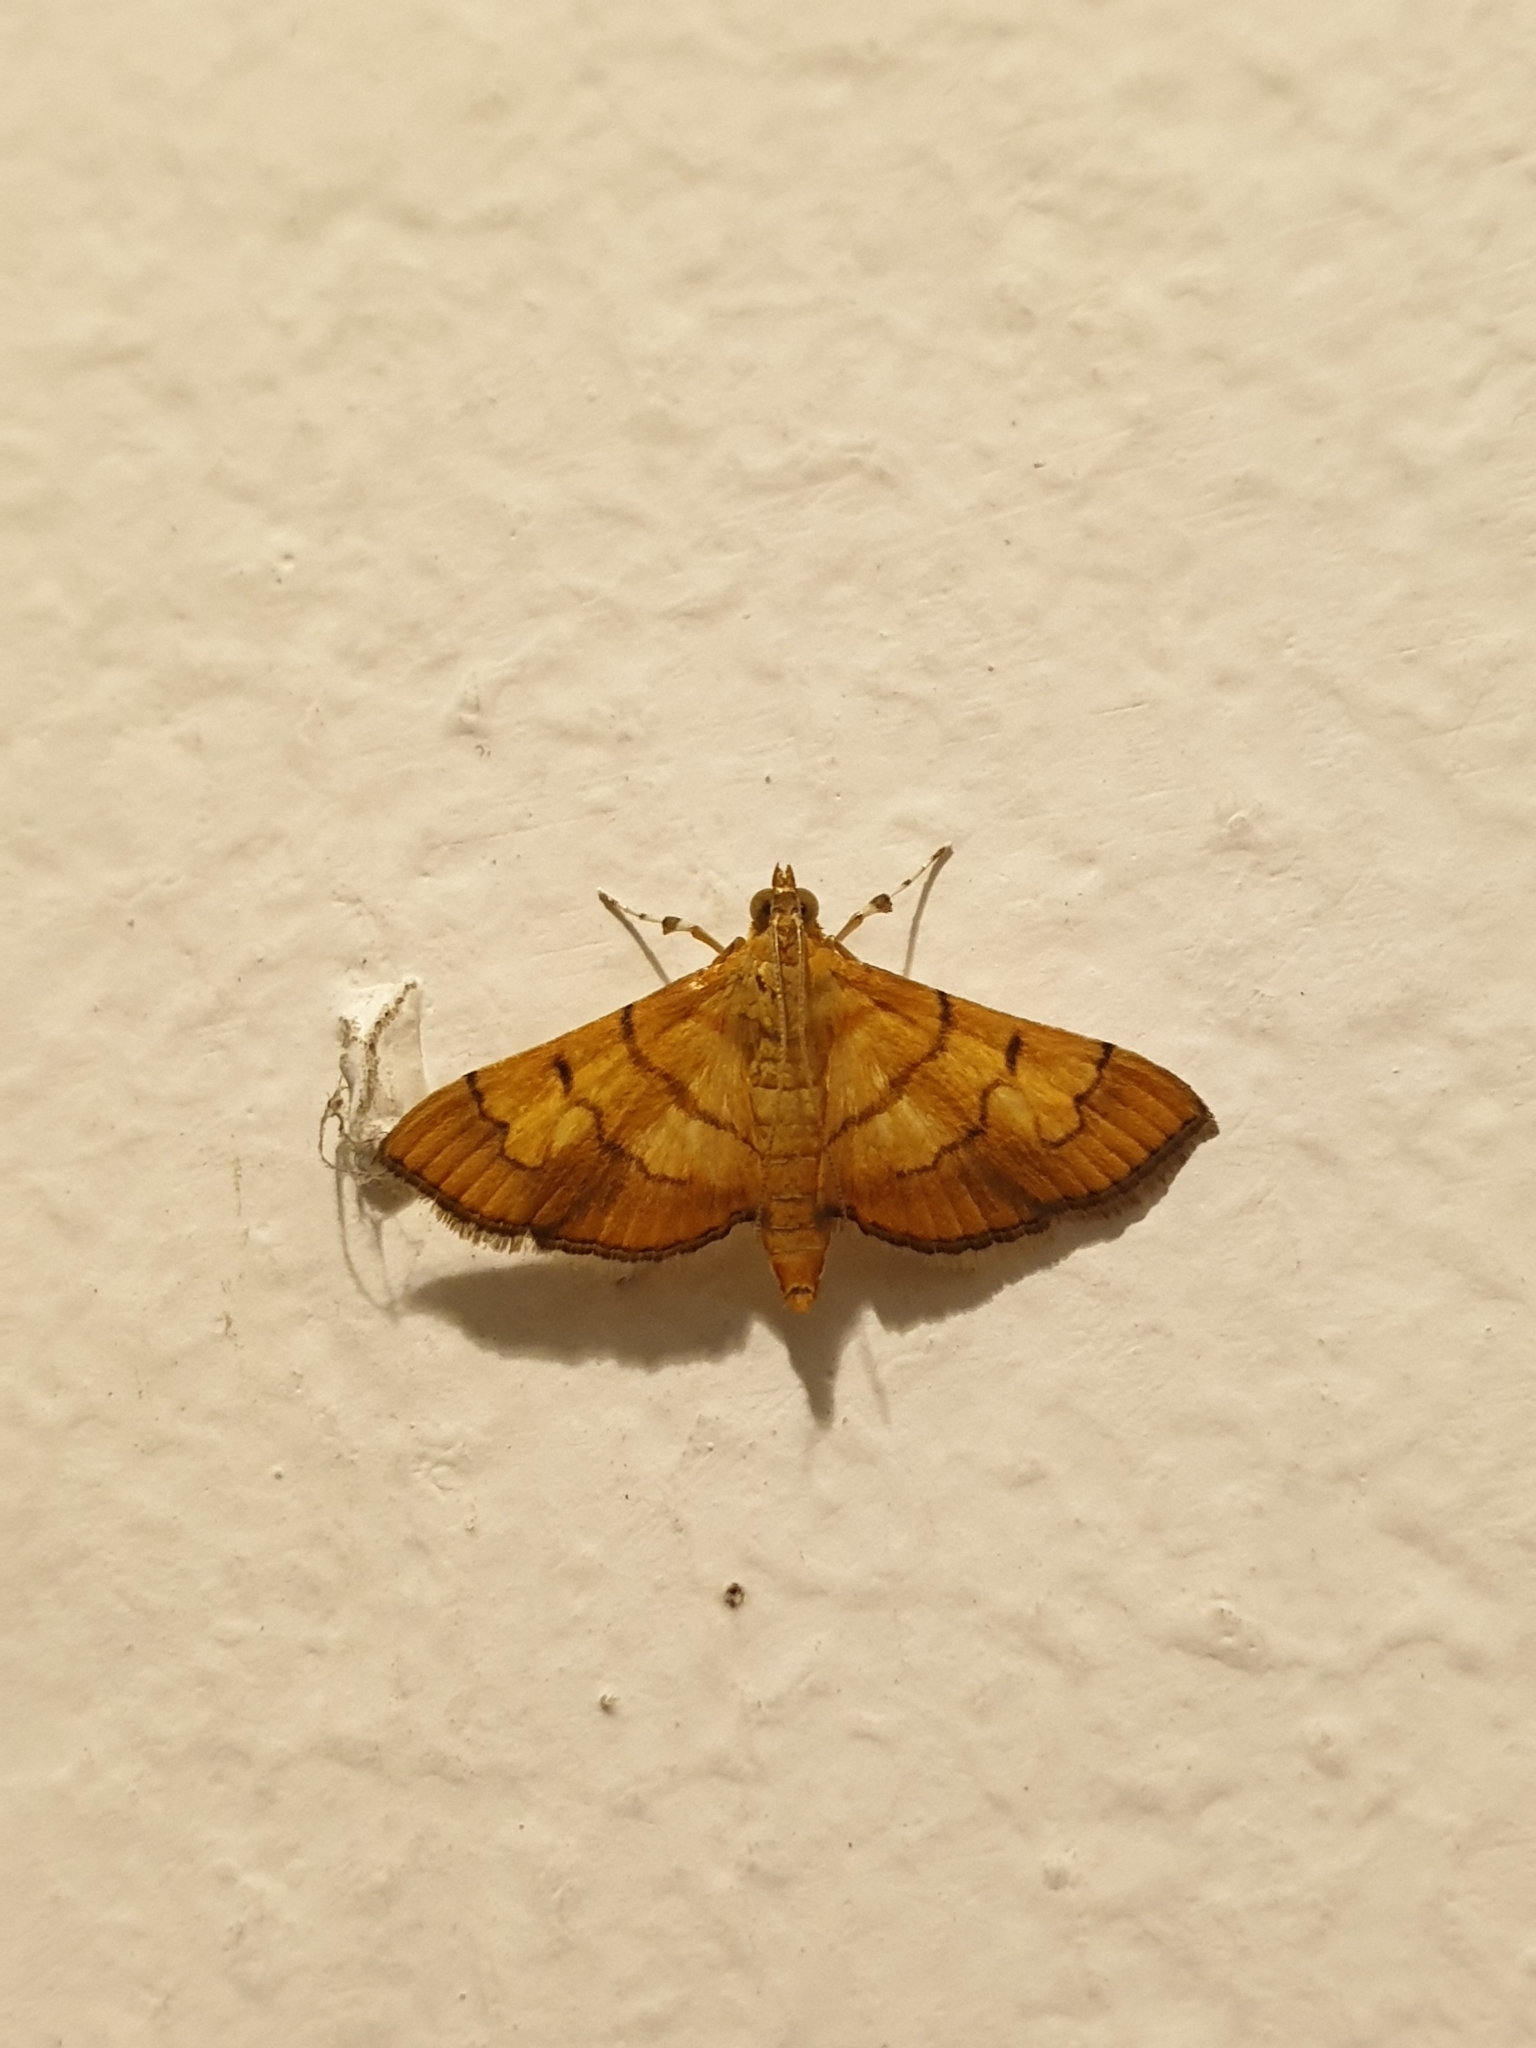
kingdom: Animalia
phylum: Arthropoda
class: Insecta
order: Lepidoptera
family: Crambidae
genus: Orphanostigma
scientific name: Orphanostigma abruptalis
